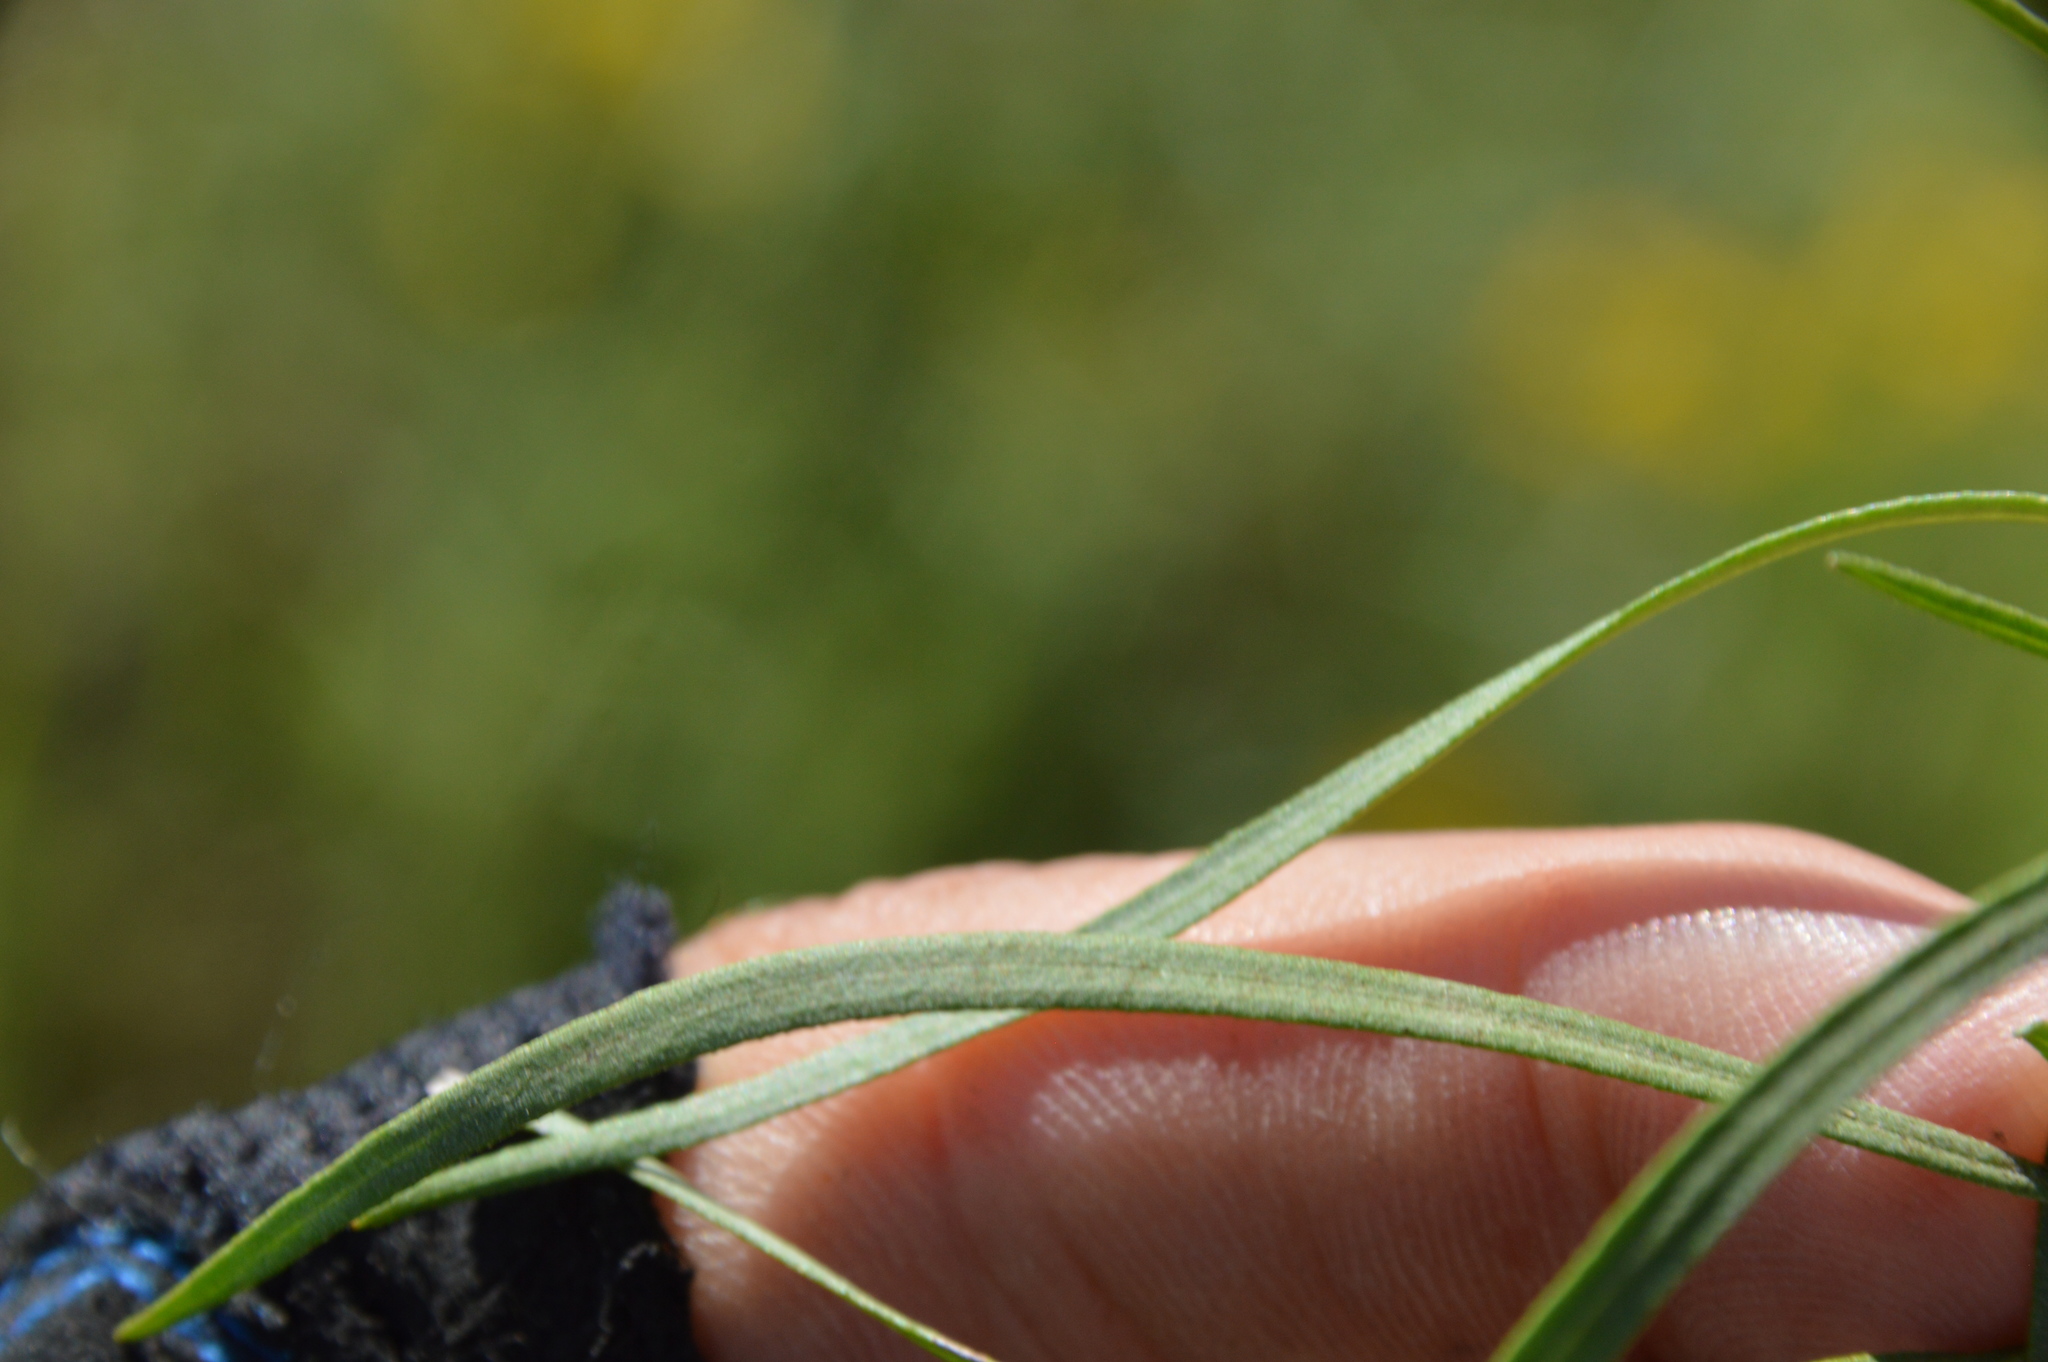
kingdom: Plantae
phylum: Tracheophyta
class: Magnoliopsida
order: Asterales
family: Asteraceae
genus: Euthamia
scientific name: Euthamia gymnospermoides
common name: Great plains goldentop
